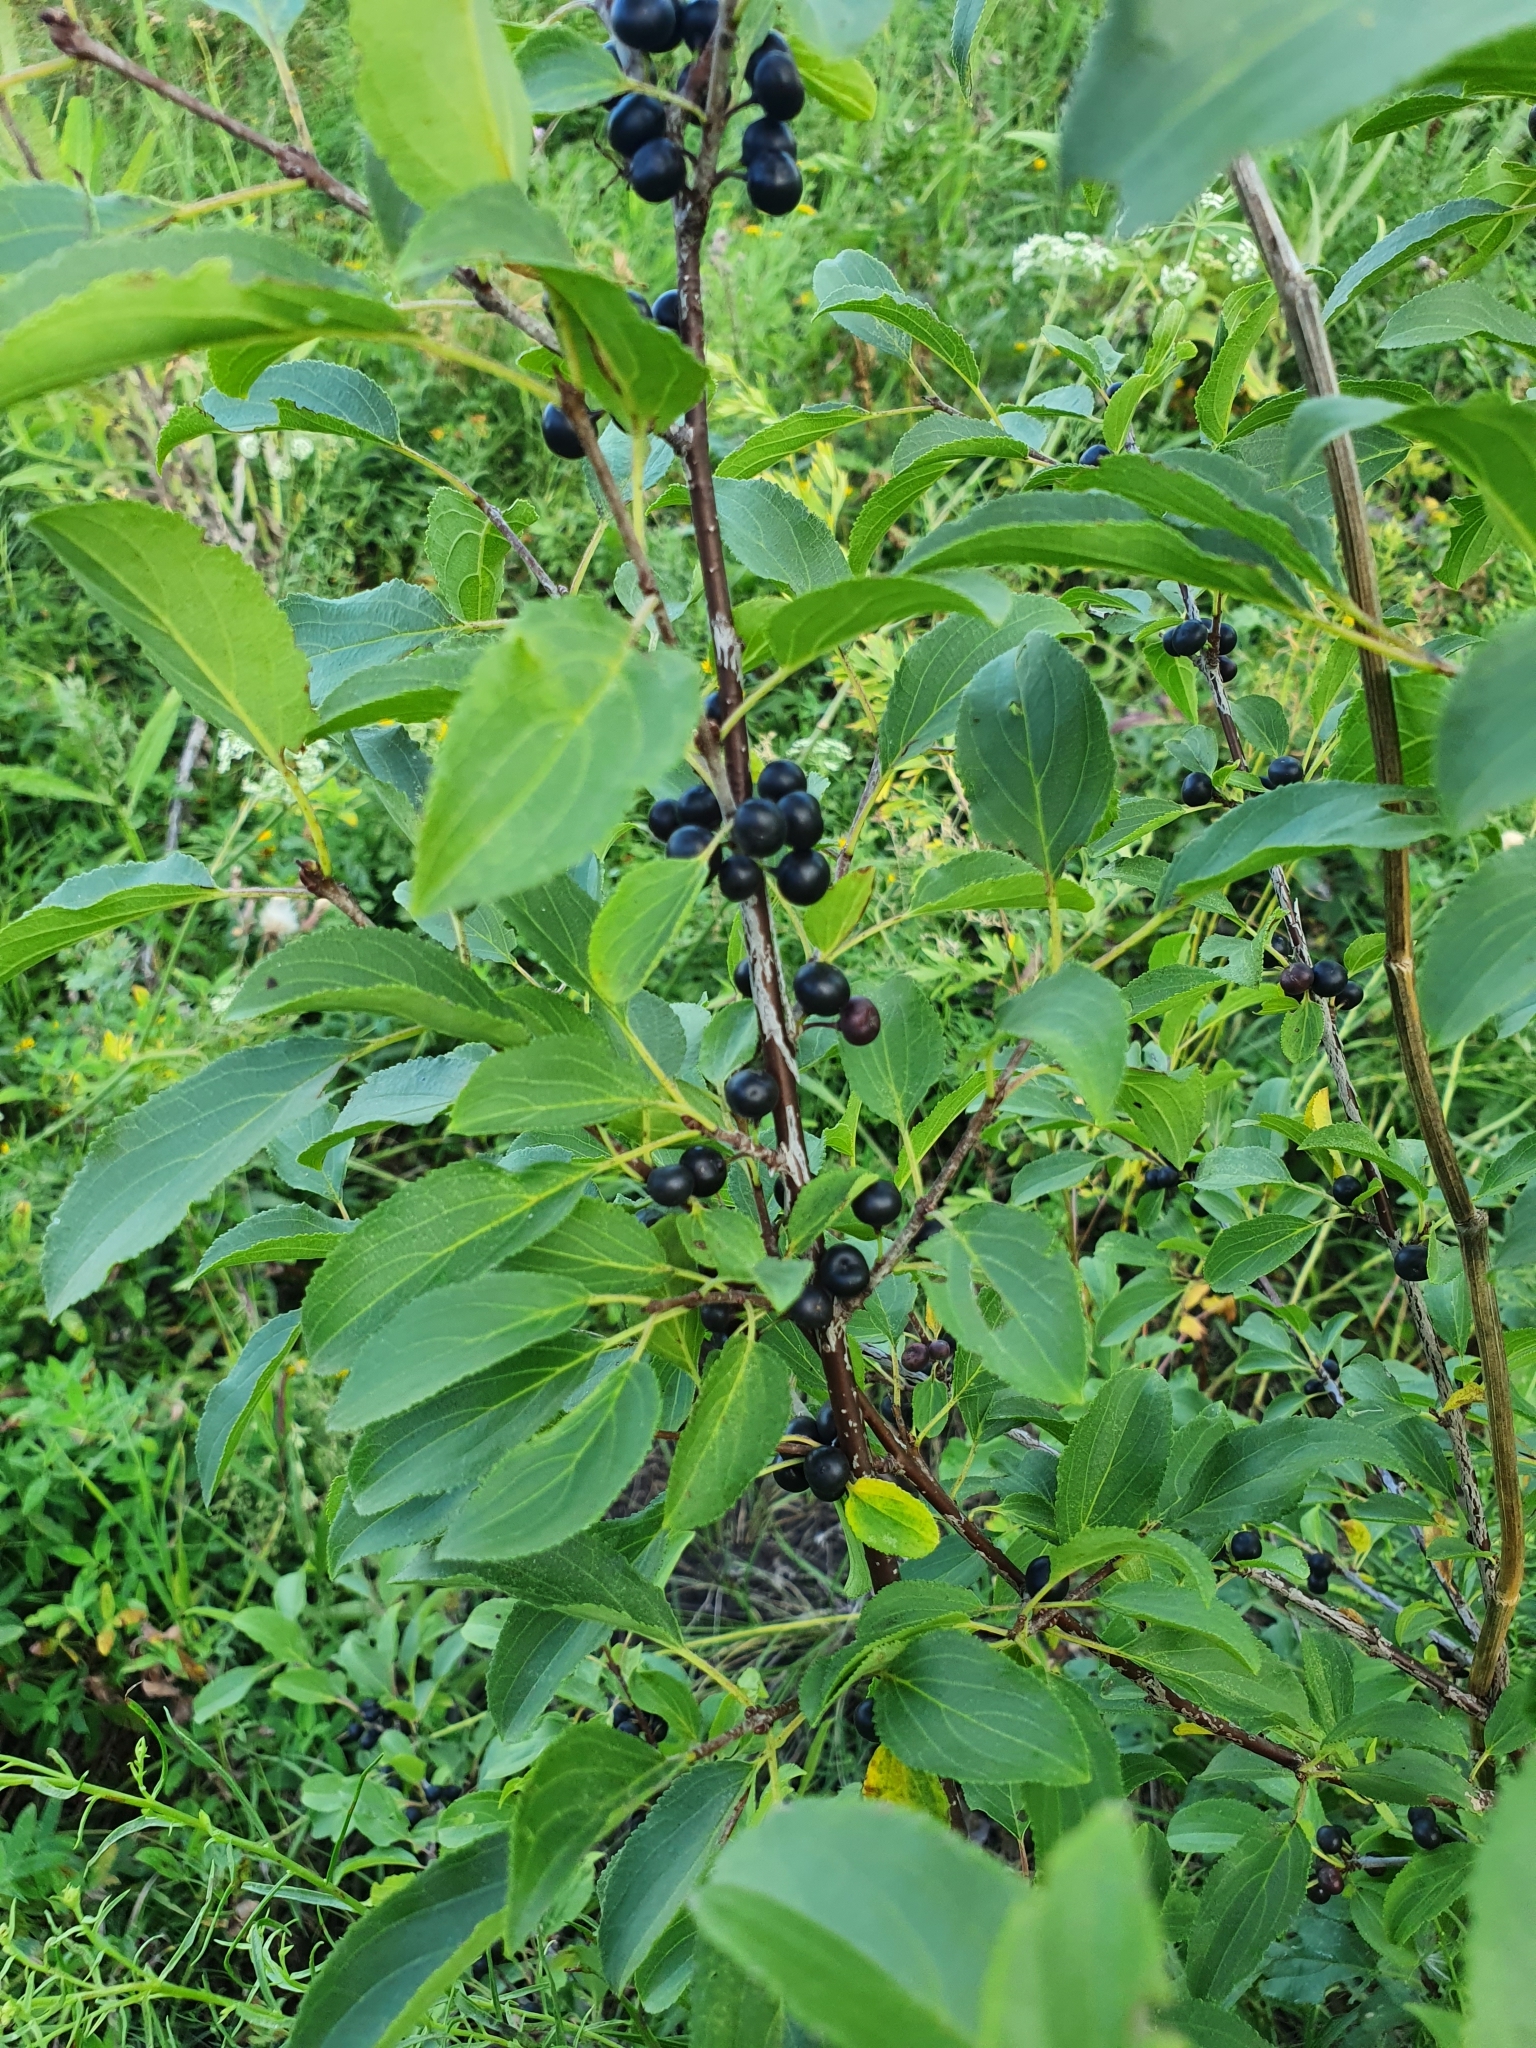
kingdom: Plantae
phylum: Tracheophyta
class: Magnoliopsida
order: Rosales
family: Rhamnaceae
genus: Rhamnus
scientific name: Rhamnus cathartica
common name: Common buckthorn
